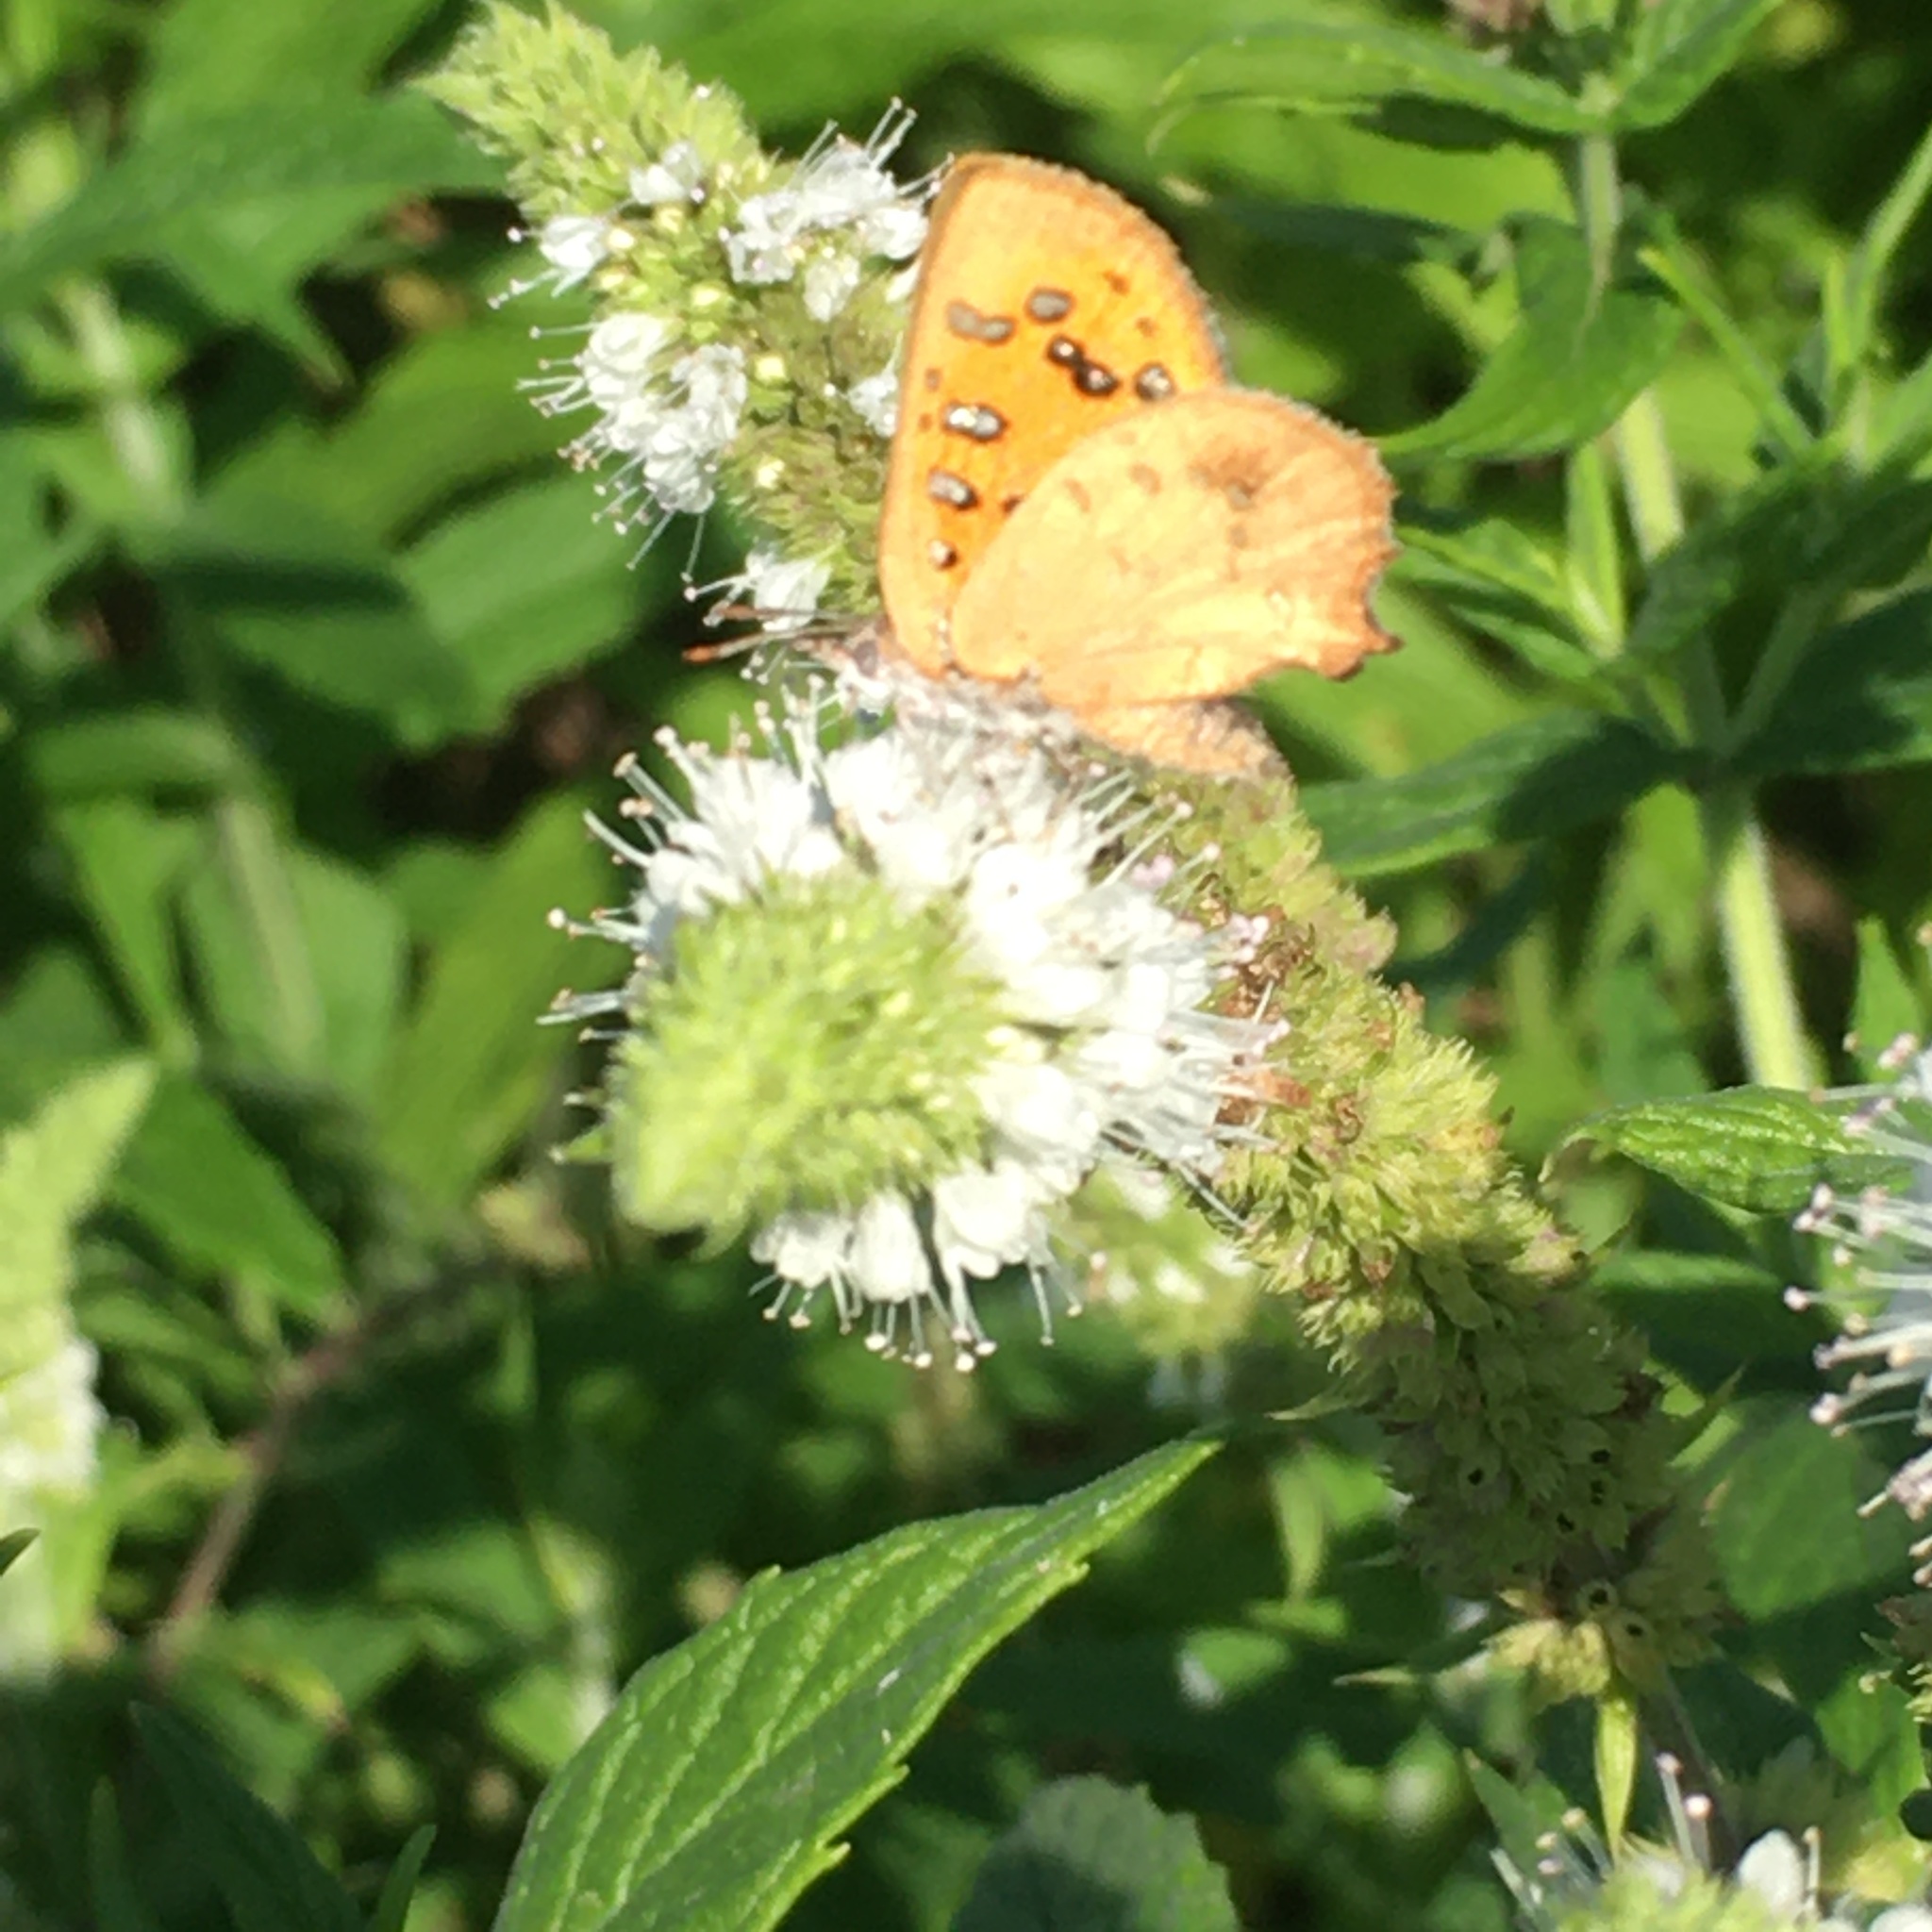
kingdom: Animalia
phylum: Arthropoda
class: Insecta
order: Lepidoptera
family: Lycaenidae
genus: Zeritis
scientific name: Zeritis chrysaor
